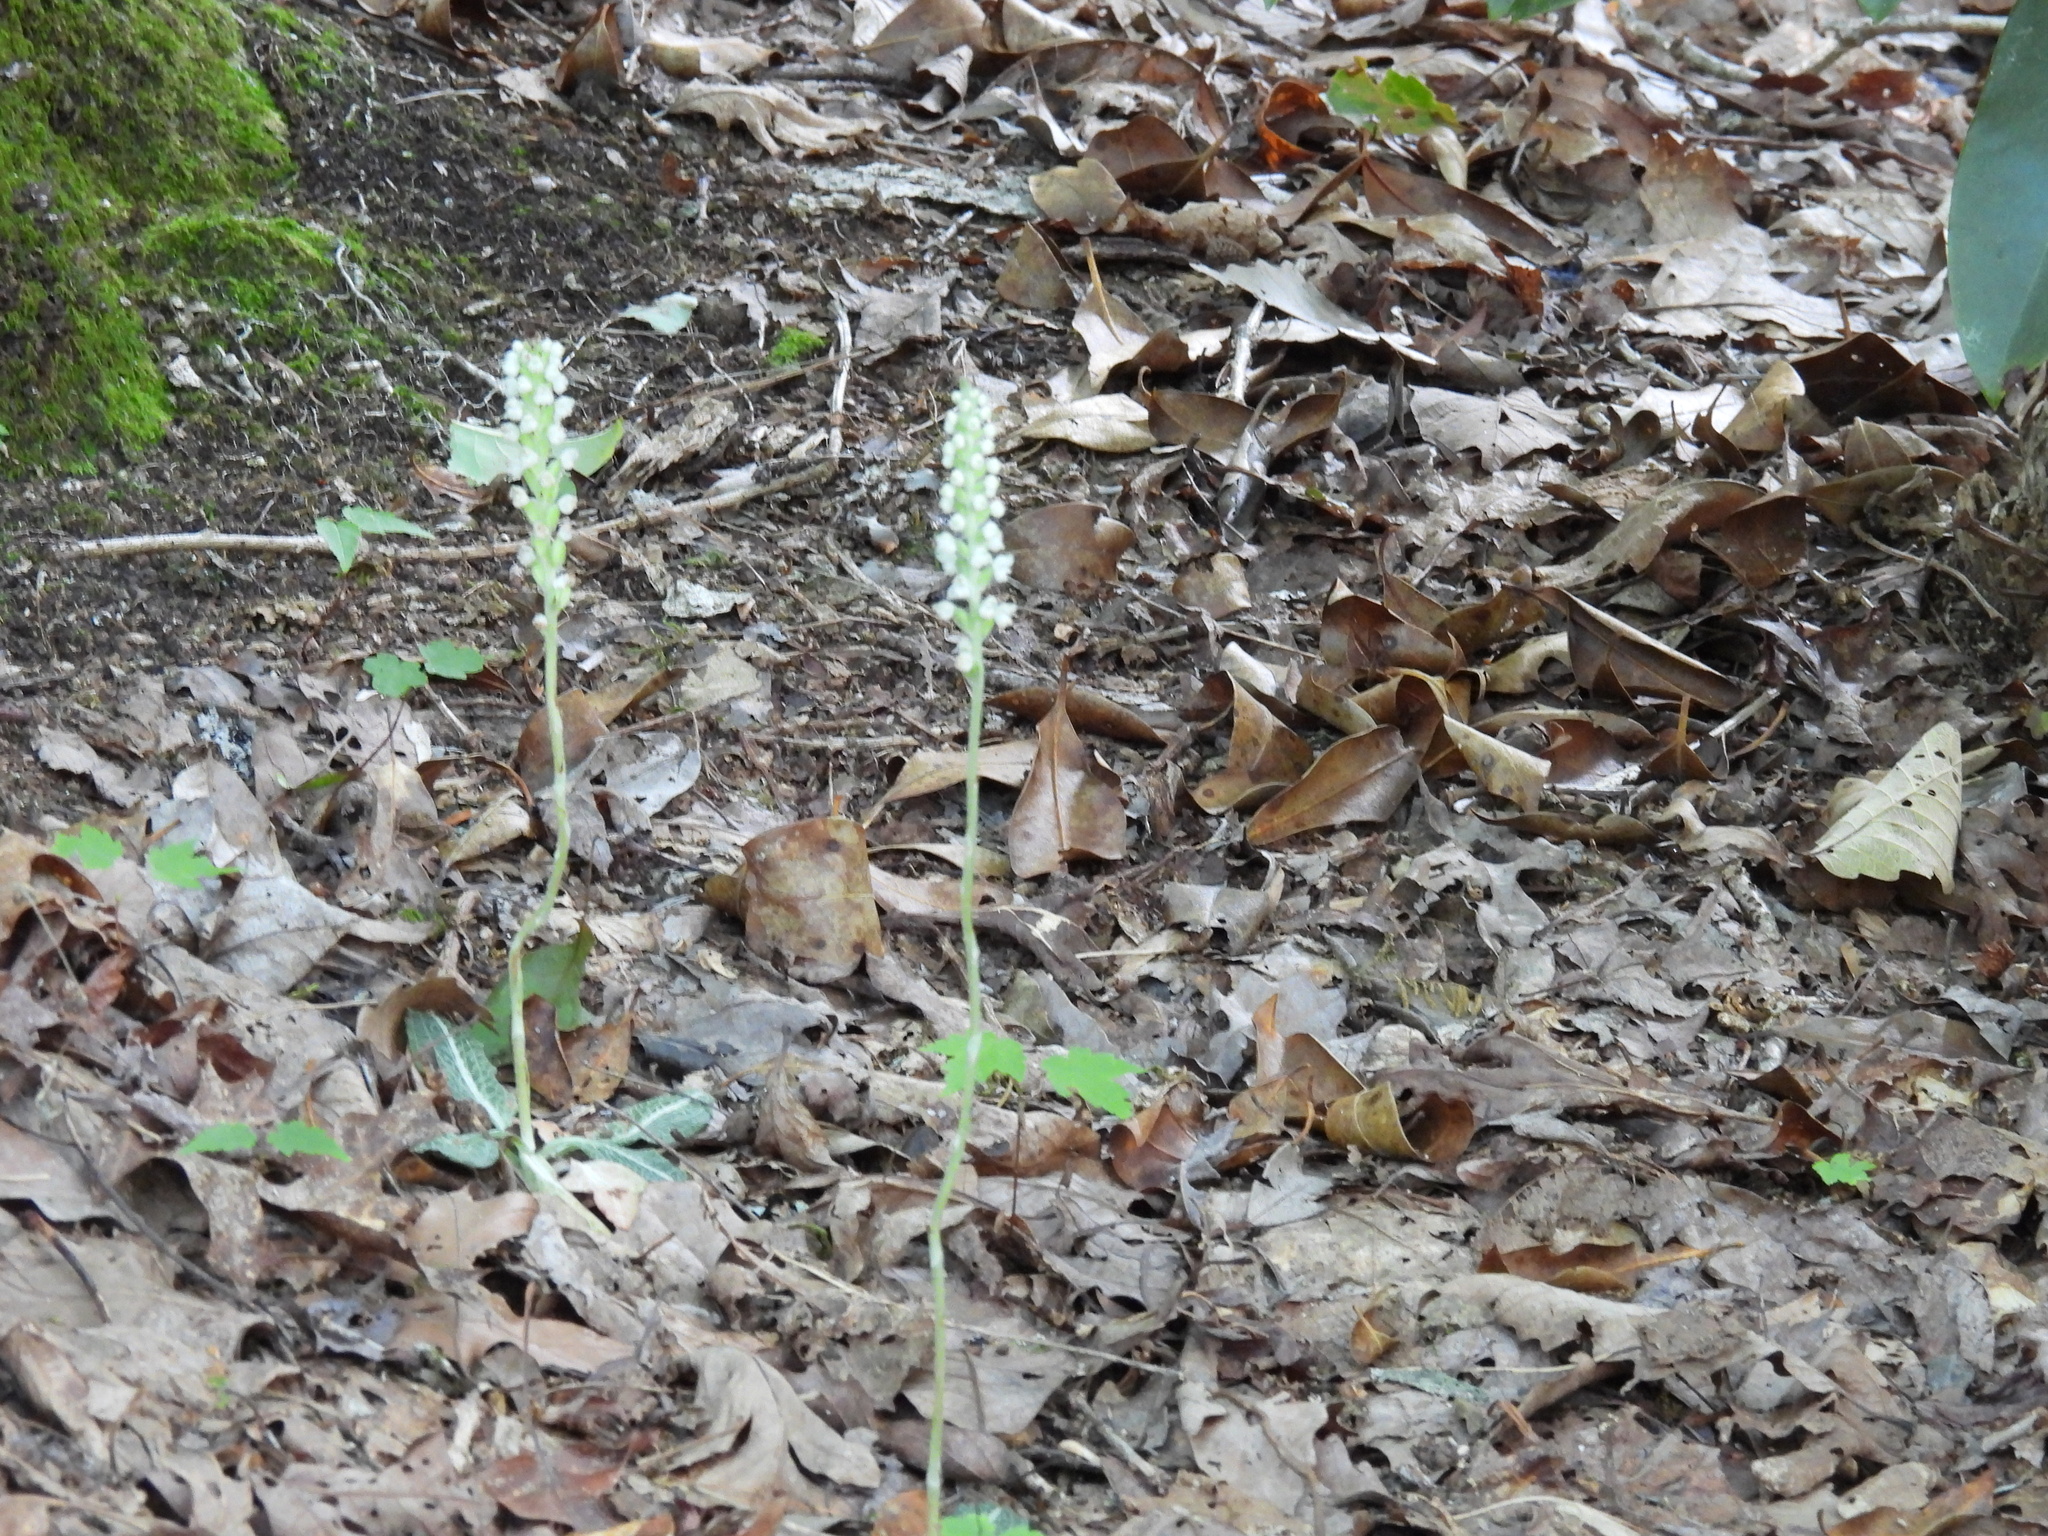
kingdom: Plantae
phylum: Tracheophyta
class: Liliopsida
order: Asparagales
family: Orchidaceae
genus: Goodyera
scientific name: Goodyera pubescens
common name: Downy rattlesnake-plantain
